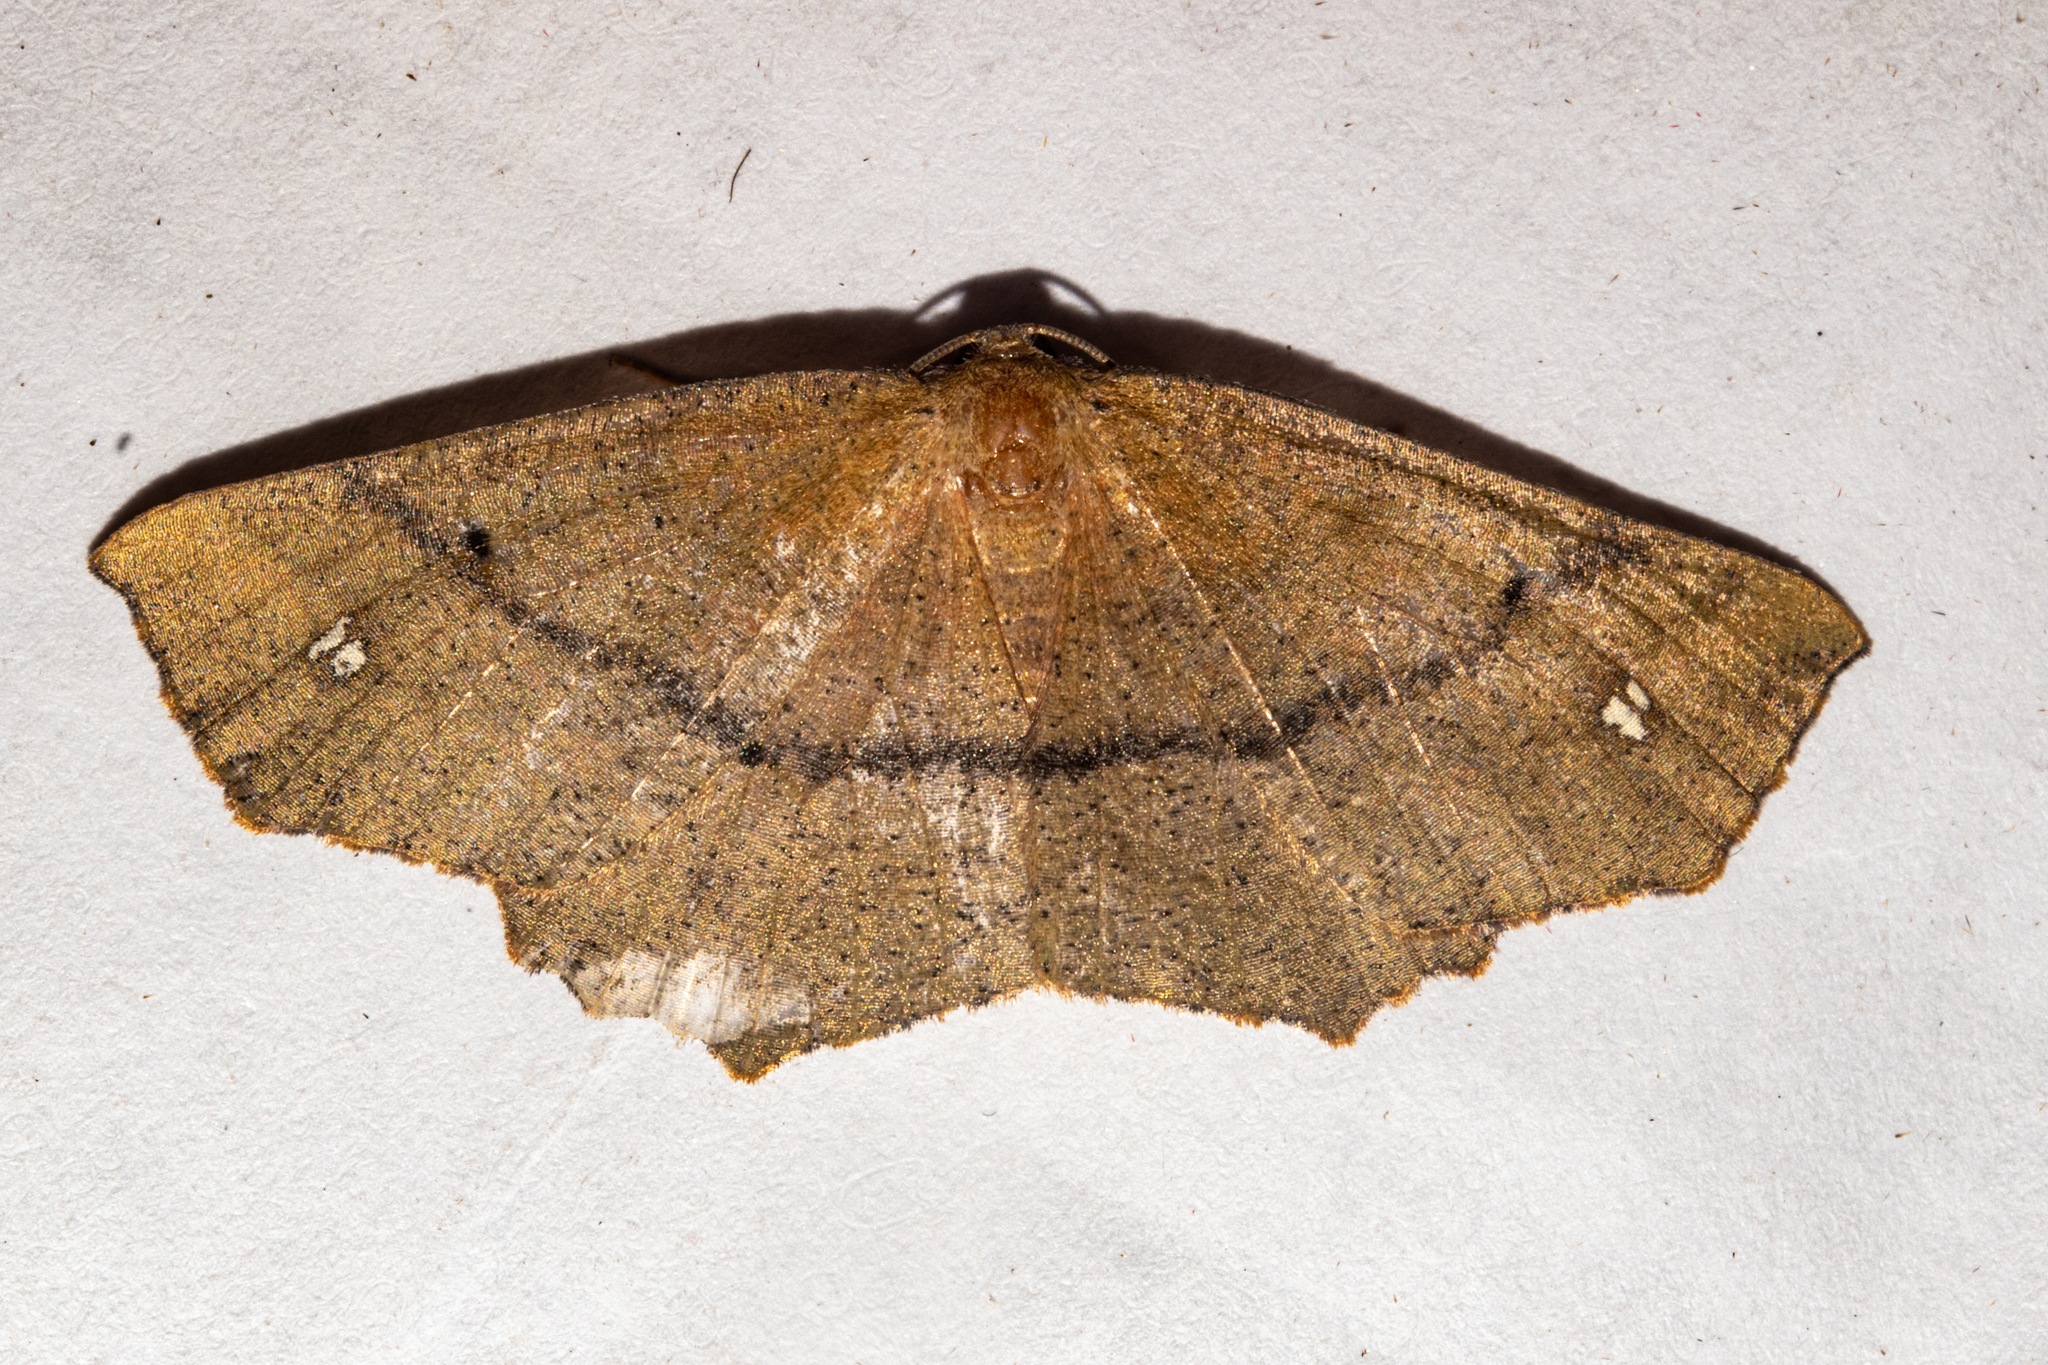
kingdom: Animalia
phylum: Arthropoda
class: Insecta
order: Lepidoptera
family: Geometridae
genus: Xyridacma
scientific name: Xyridacma ustaria
